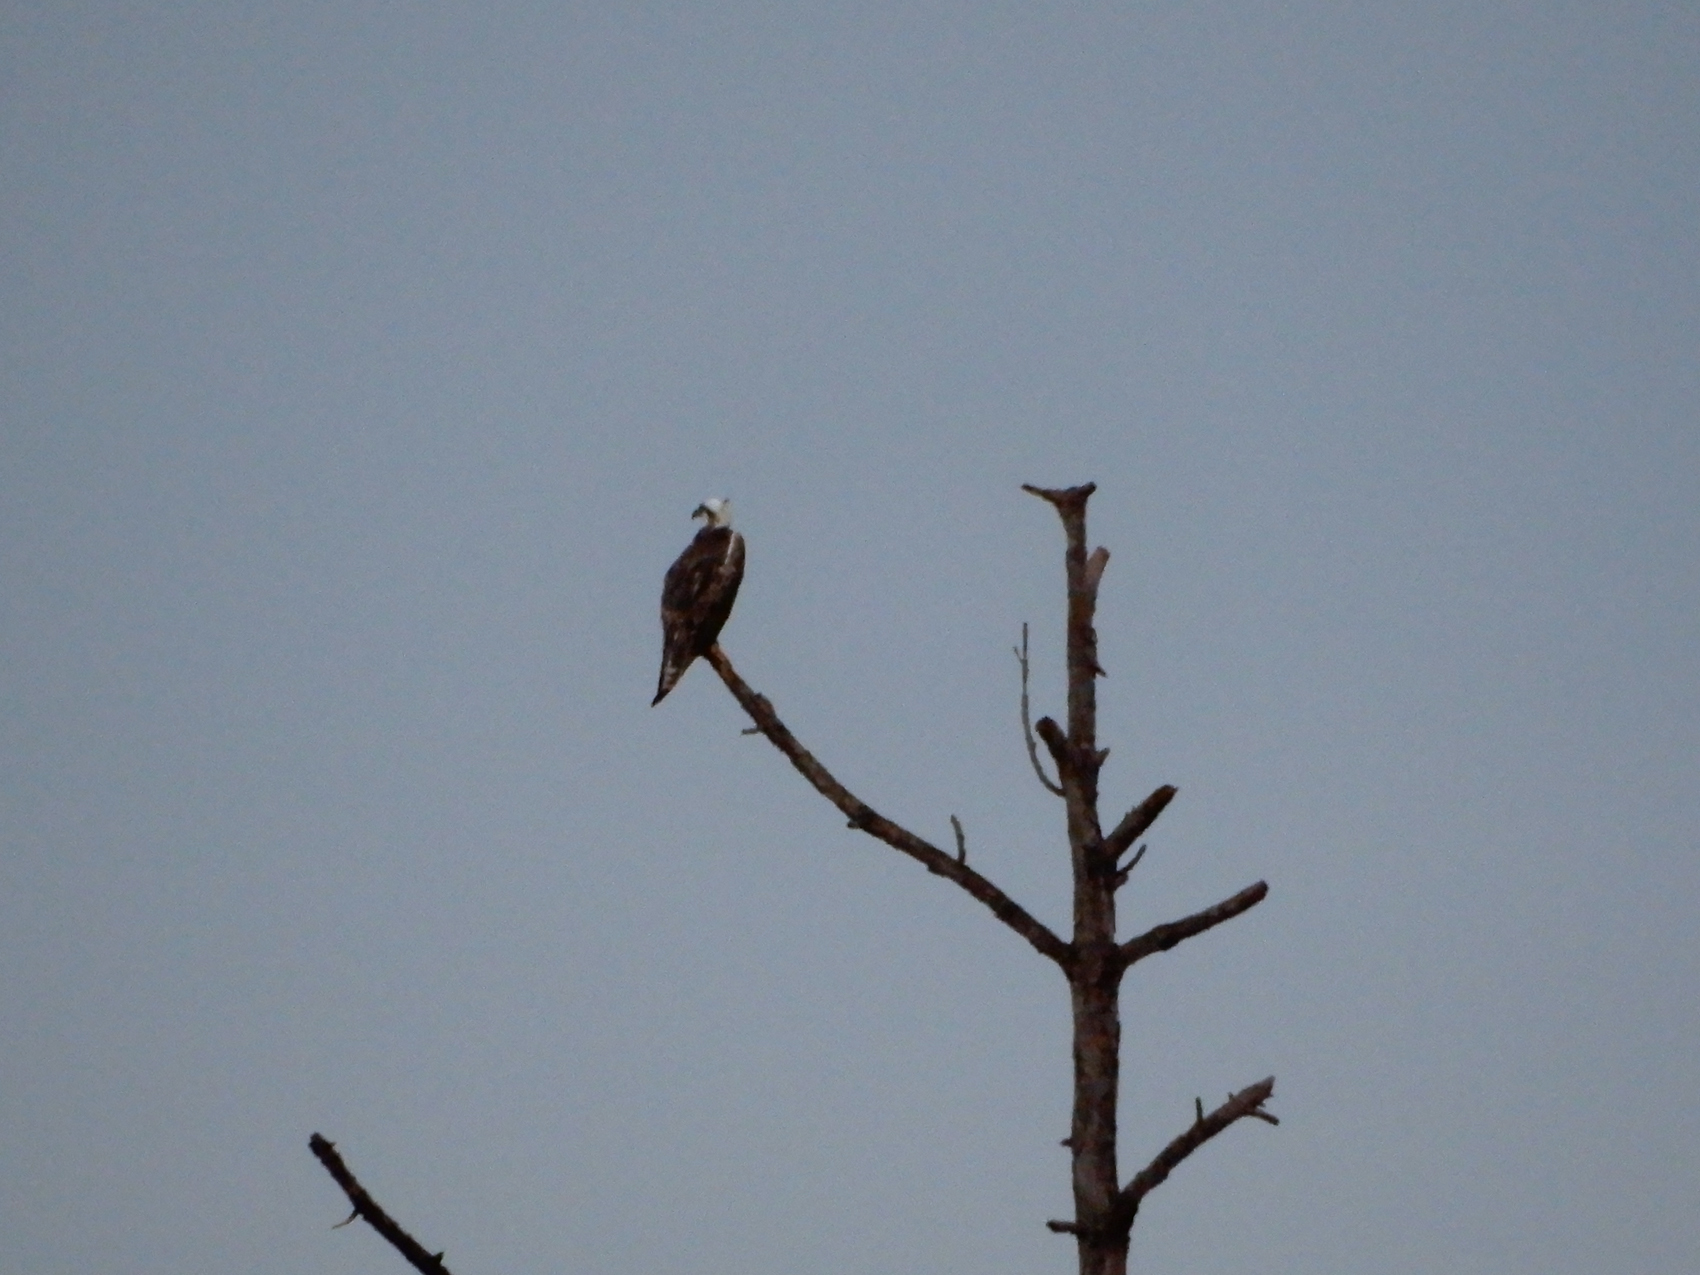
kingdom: Animalia
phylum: Chordata
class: Aves
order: Accipitriformes
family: Pandionidae
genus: Pandion
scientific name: Pandion haliaetus
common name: Osprey
